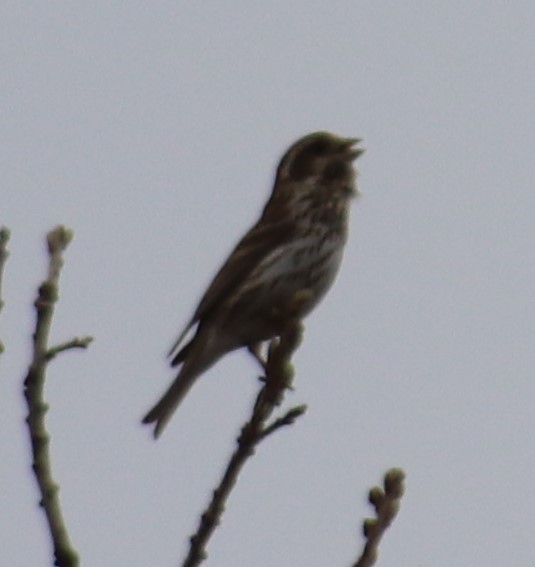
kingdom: Animalia
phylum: Chordata
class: Aves
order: Passeriformes
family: Fringillidae
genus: Haemorhous
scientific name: Haemorhous purpureus
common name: Purple finch
